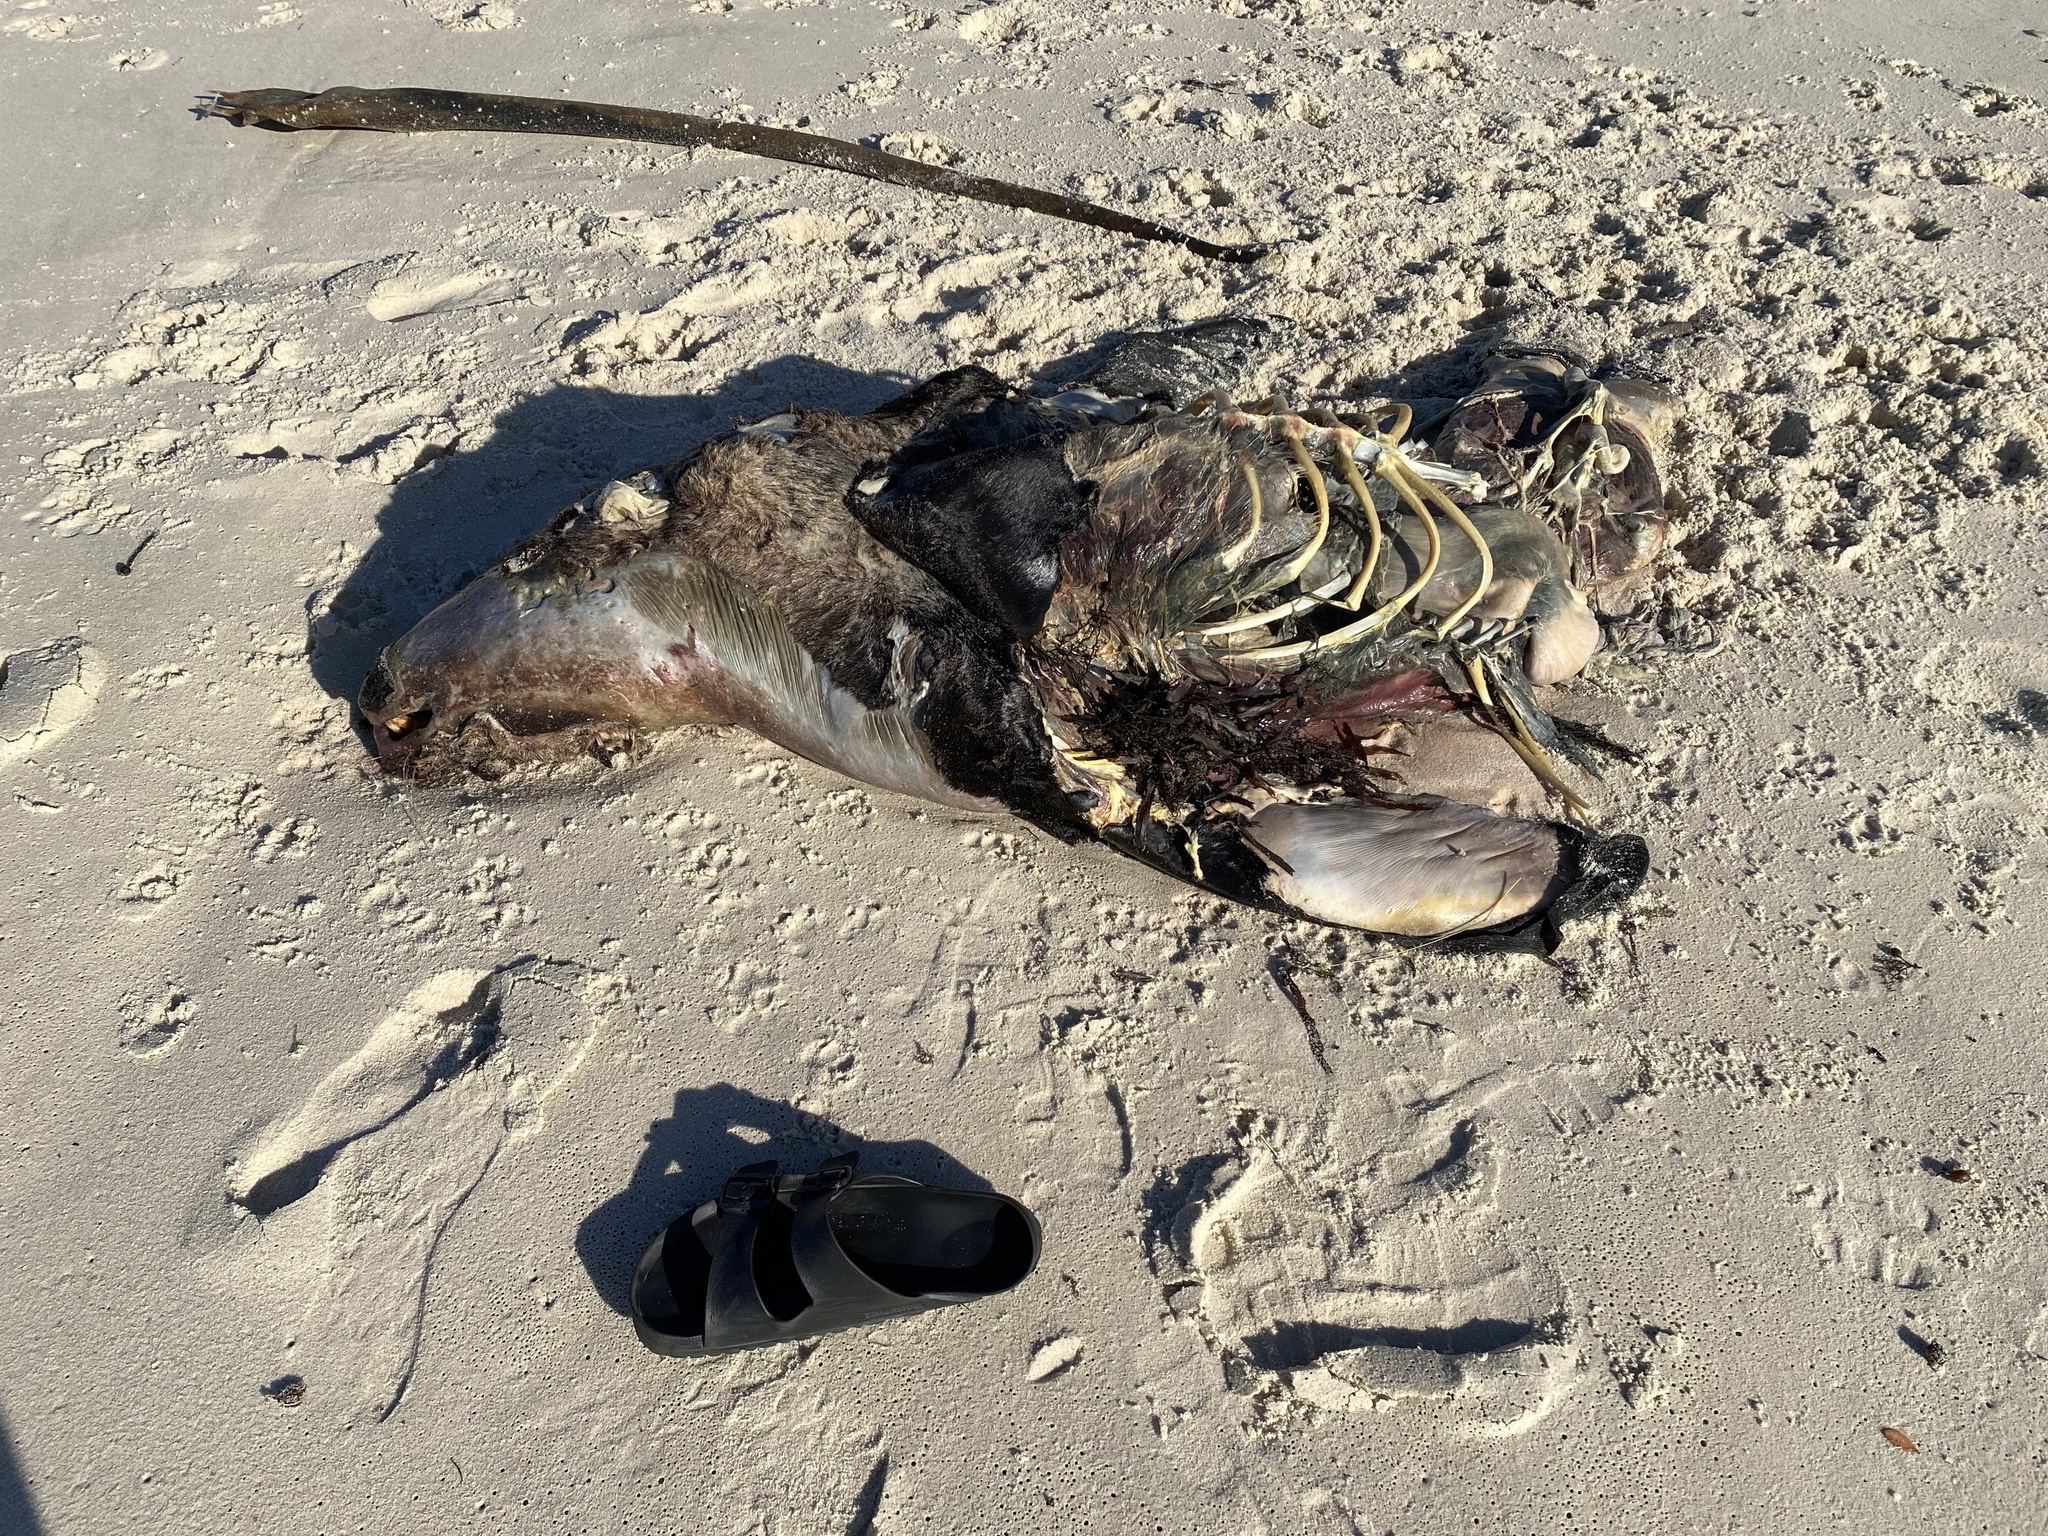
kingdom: Animalia
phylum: Chordata
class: Mammalia
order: Carnivora
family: Otariidae
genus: Arctocephalus
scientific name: Arctocephalus pusillus
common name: Brown fur seal
